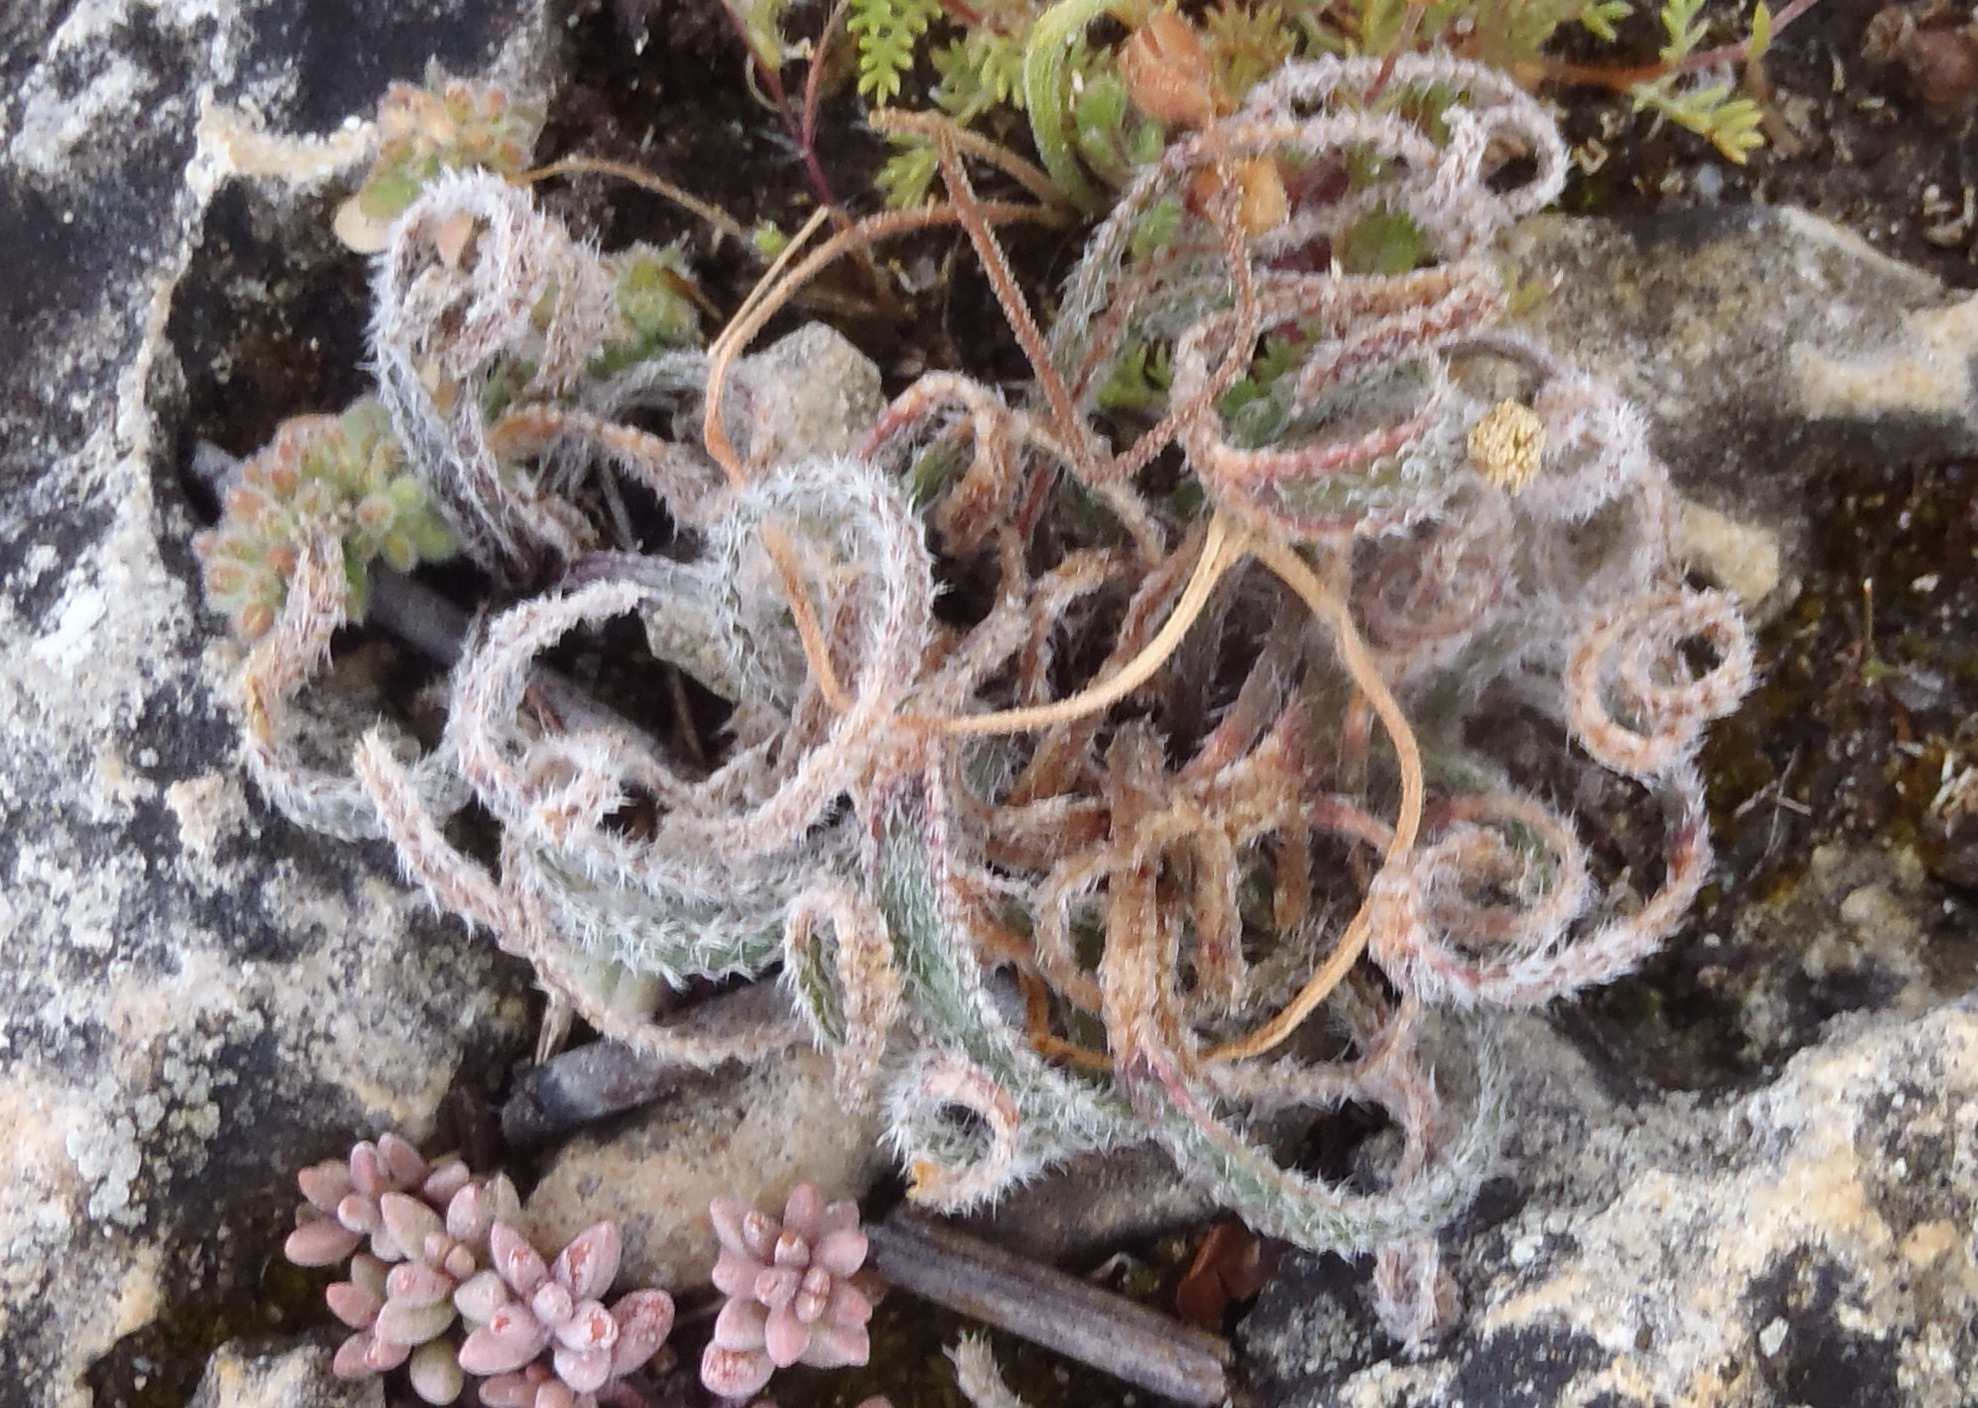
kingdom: Plantae
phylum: Tracheophyta
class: Liliopsida
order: Asparagales
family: Amaryllidaceae
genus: Gethyllis
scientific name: Gethyllis villosa
